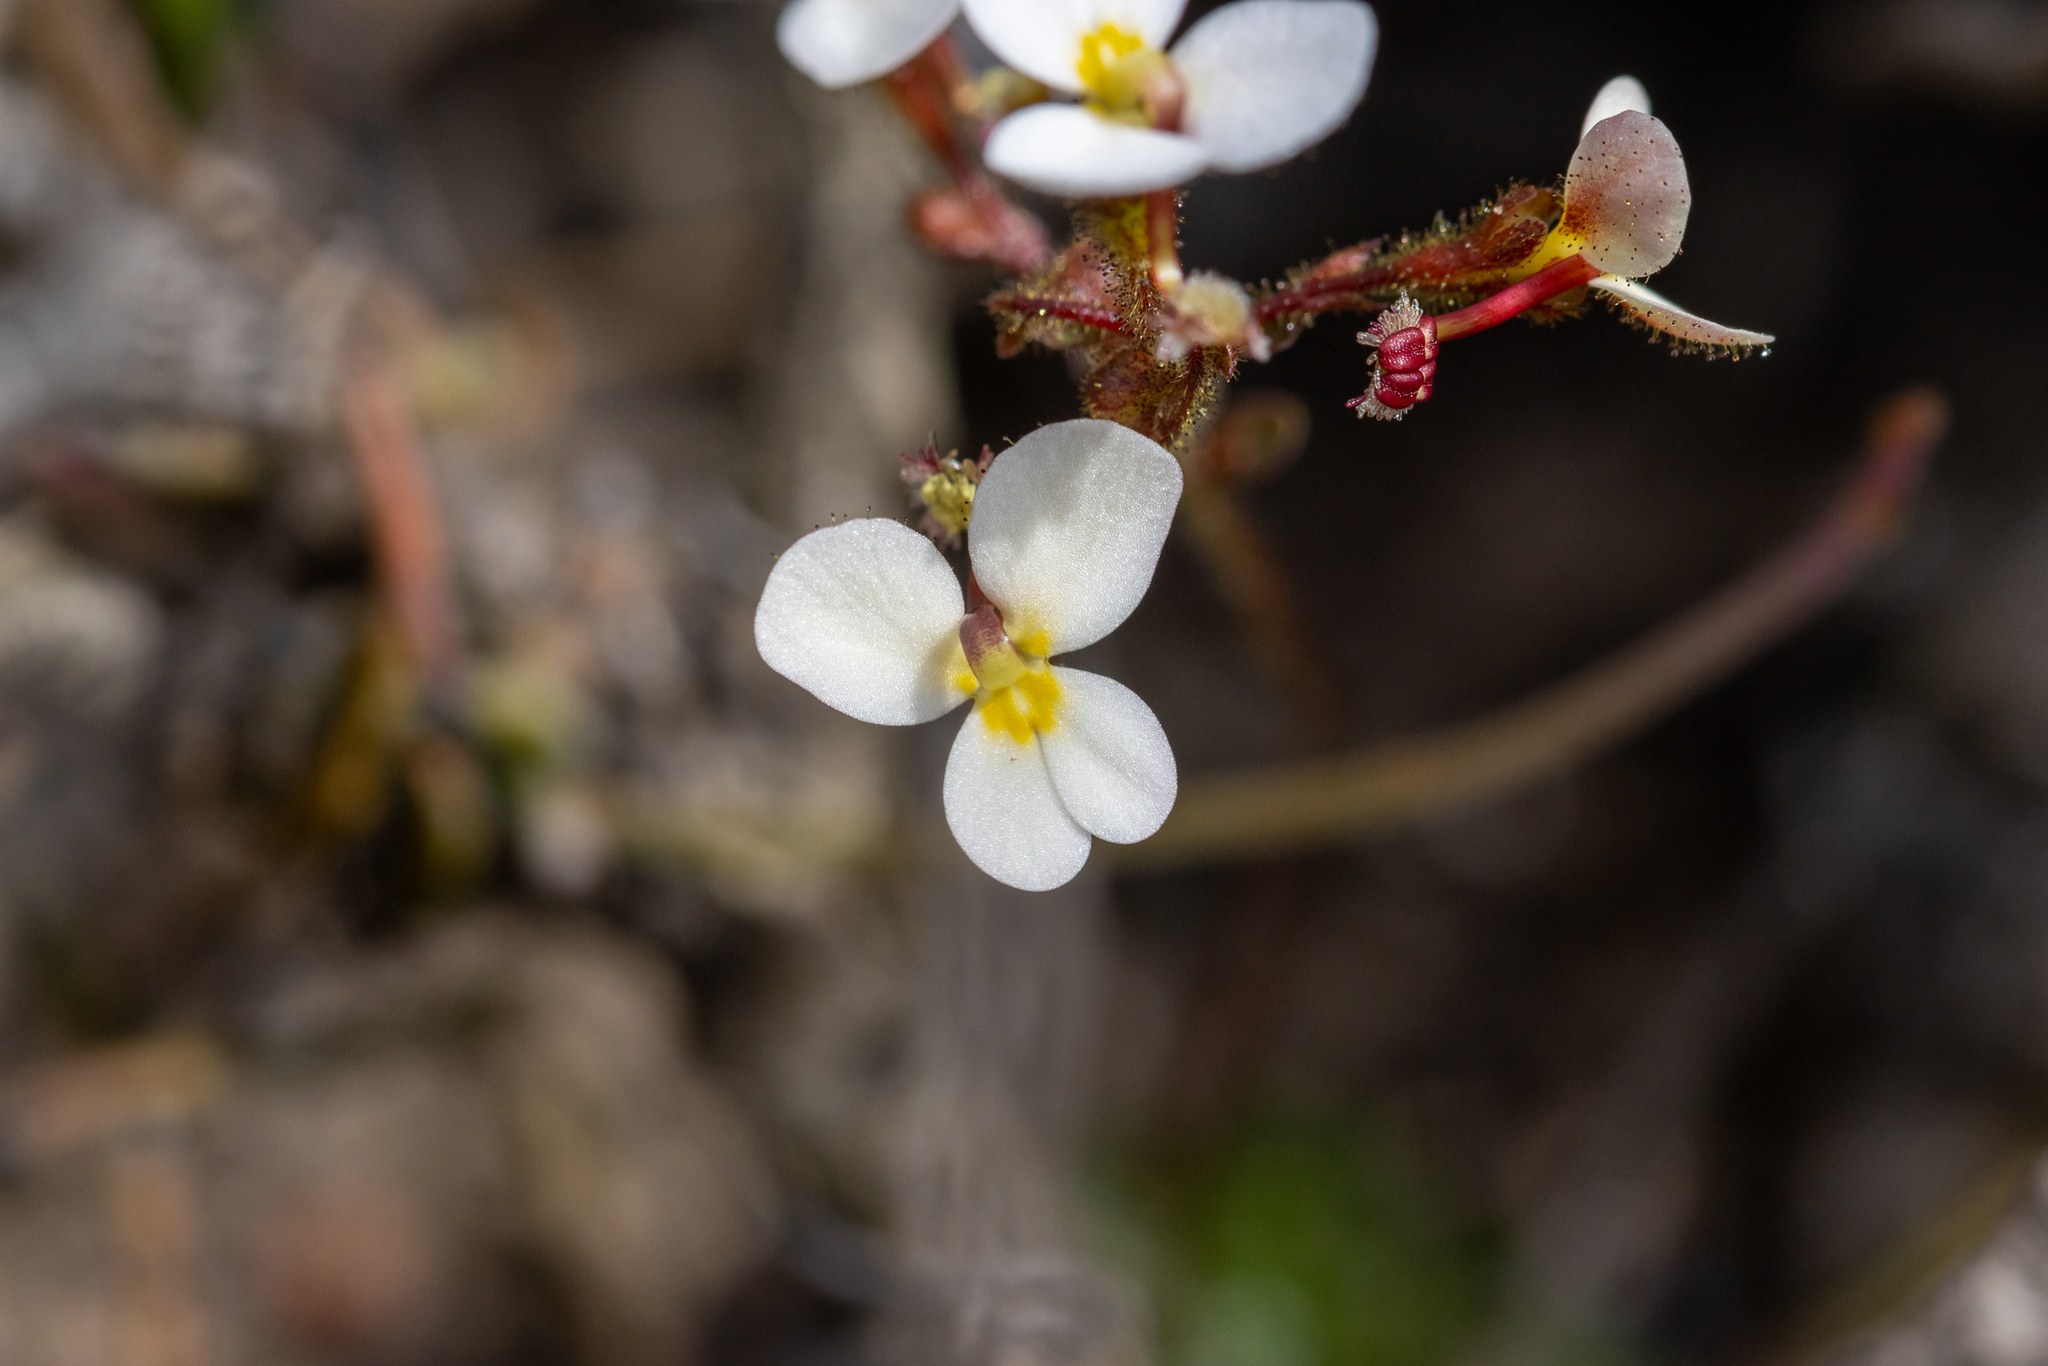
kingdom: Plantae
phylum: Tracheophyta
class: Magnoliopsida
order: Asterales
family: Stylidiaceae
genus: Stylidium
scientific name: Stylidium piliferum
